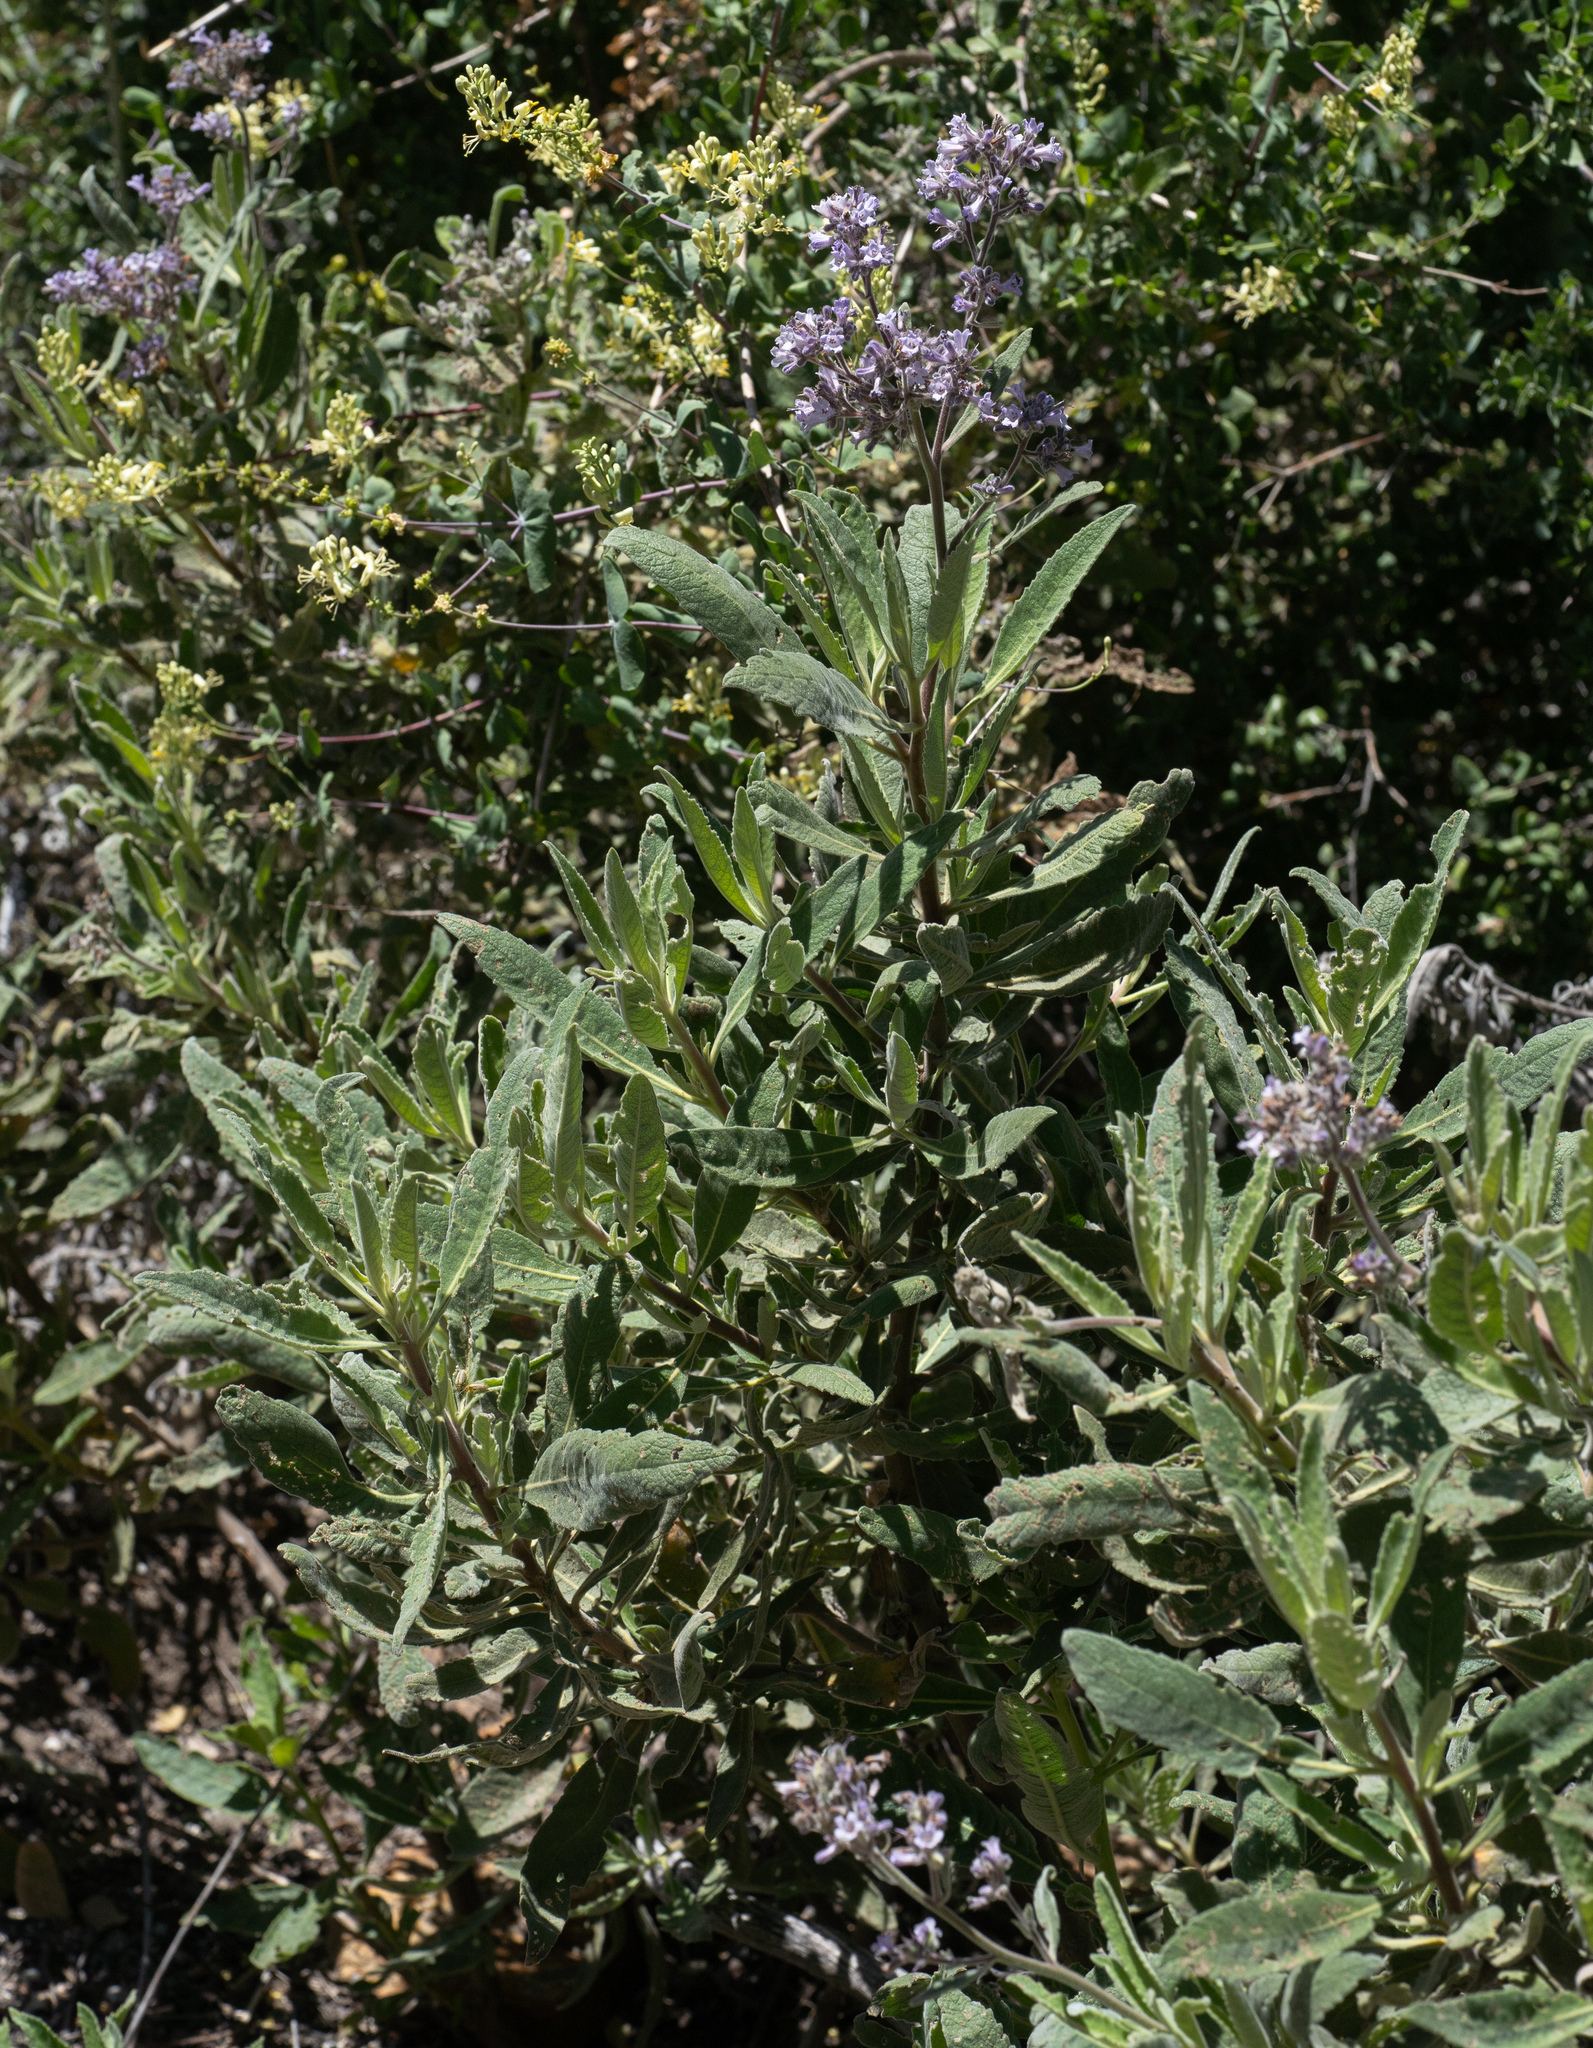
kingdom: Plantae
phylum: Tracheophyta
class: Magnoliopsida
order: Boraginales
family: Namaceae
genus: Eriodictyon
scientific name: Eriodictyon crassifolium
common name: Thick-leaf yerba-santa
